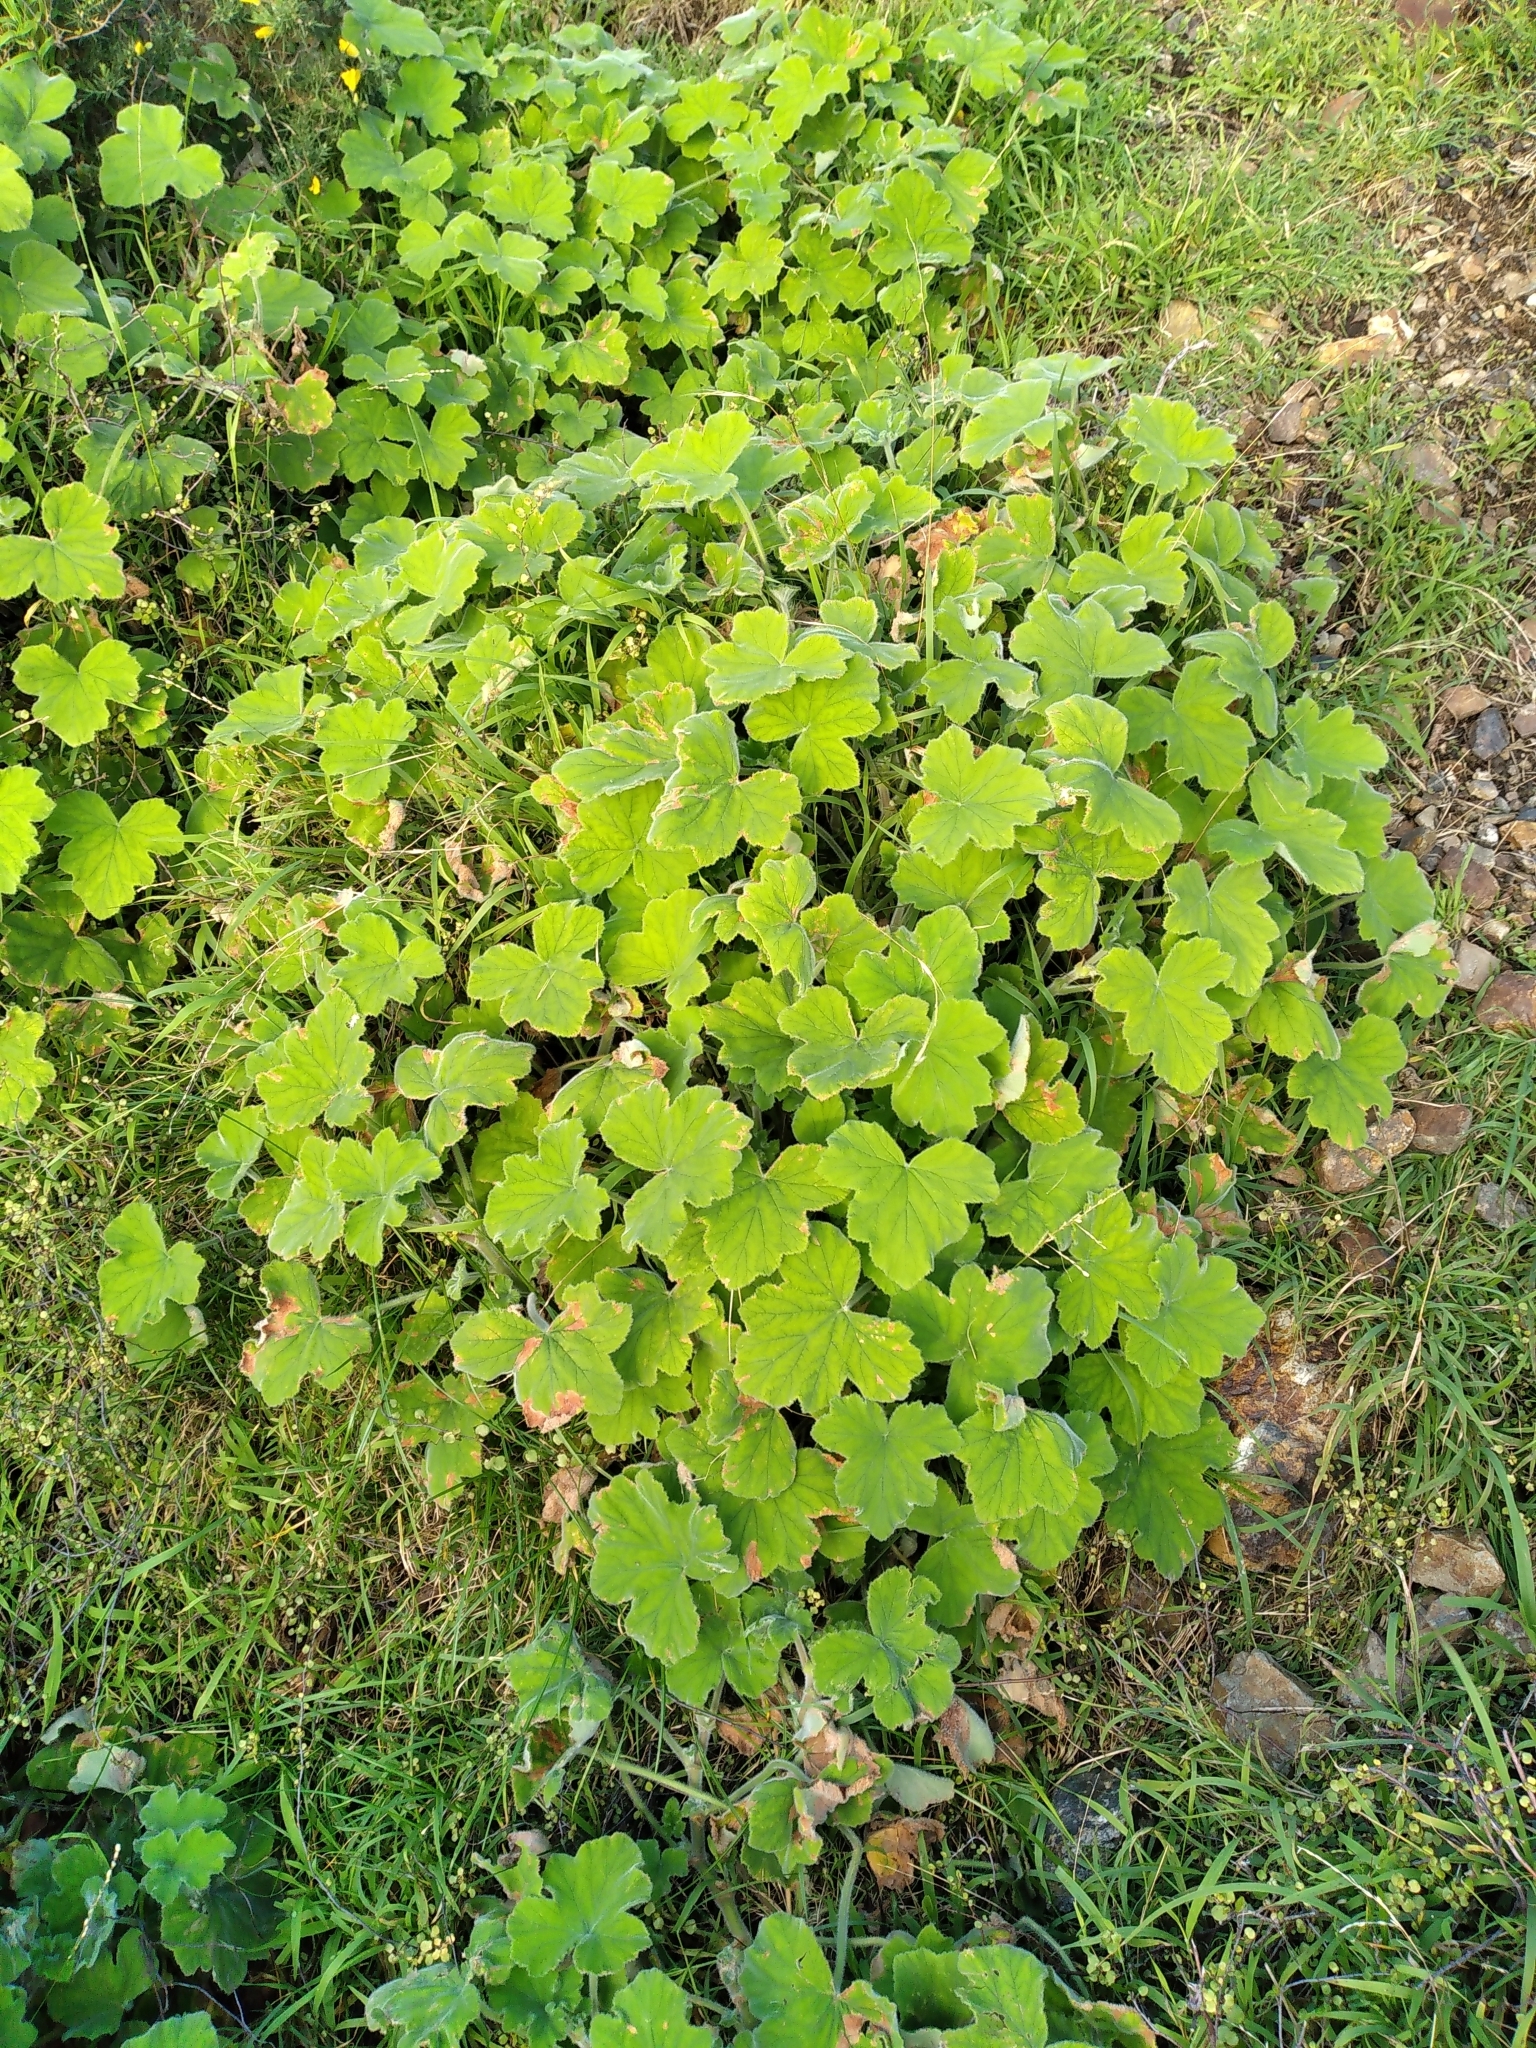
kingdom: Plantae
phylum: Tracheophyta
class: Magnoliopsida
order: Geraniales
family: Geraniaceae
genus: Pelargonium
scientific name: Pelargonium tomentosum
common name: Peppermint-scented geranium
